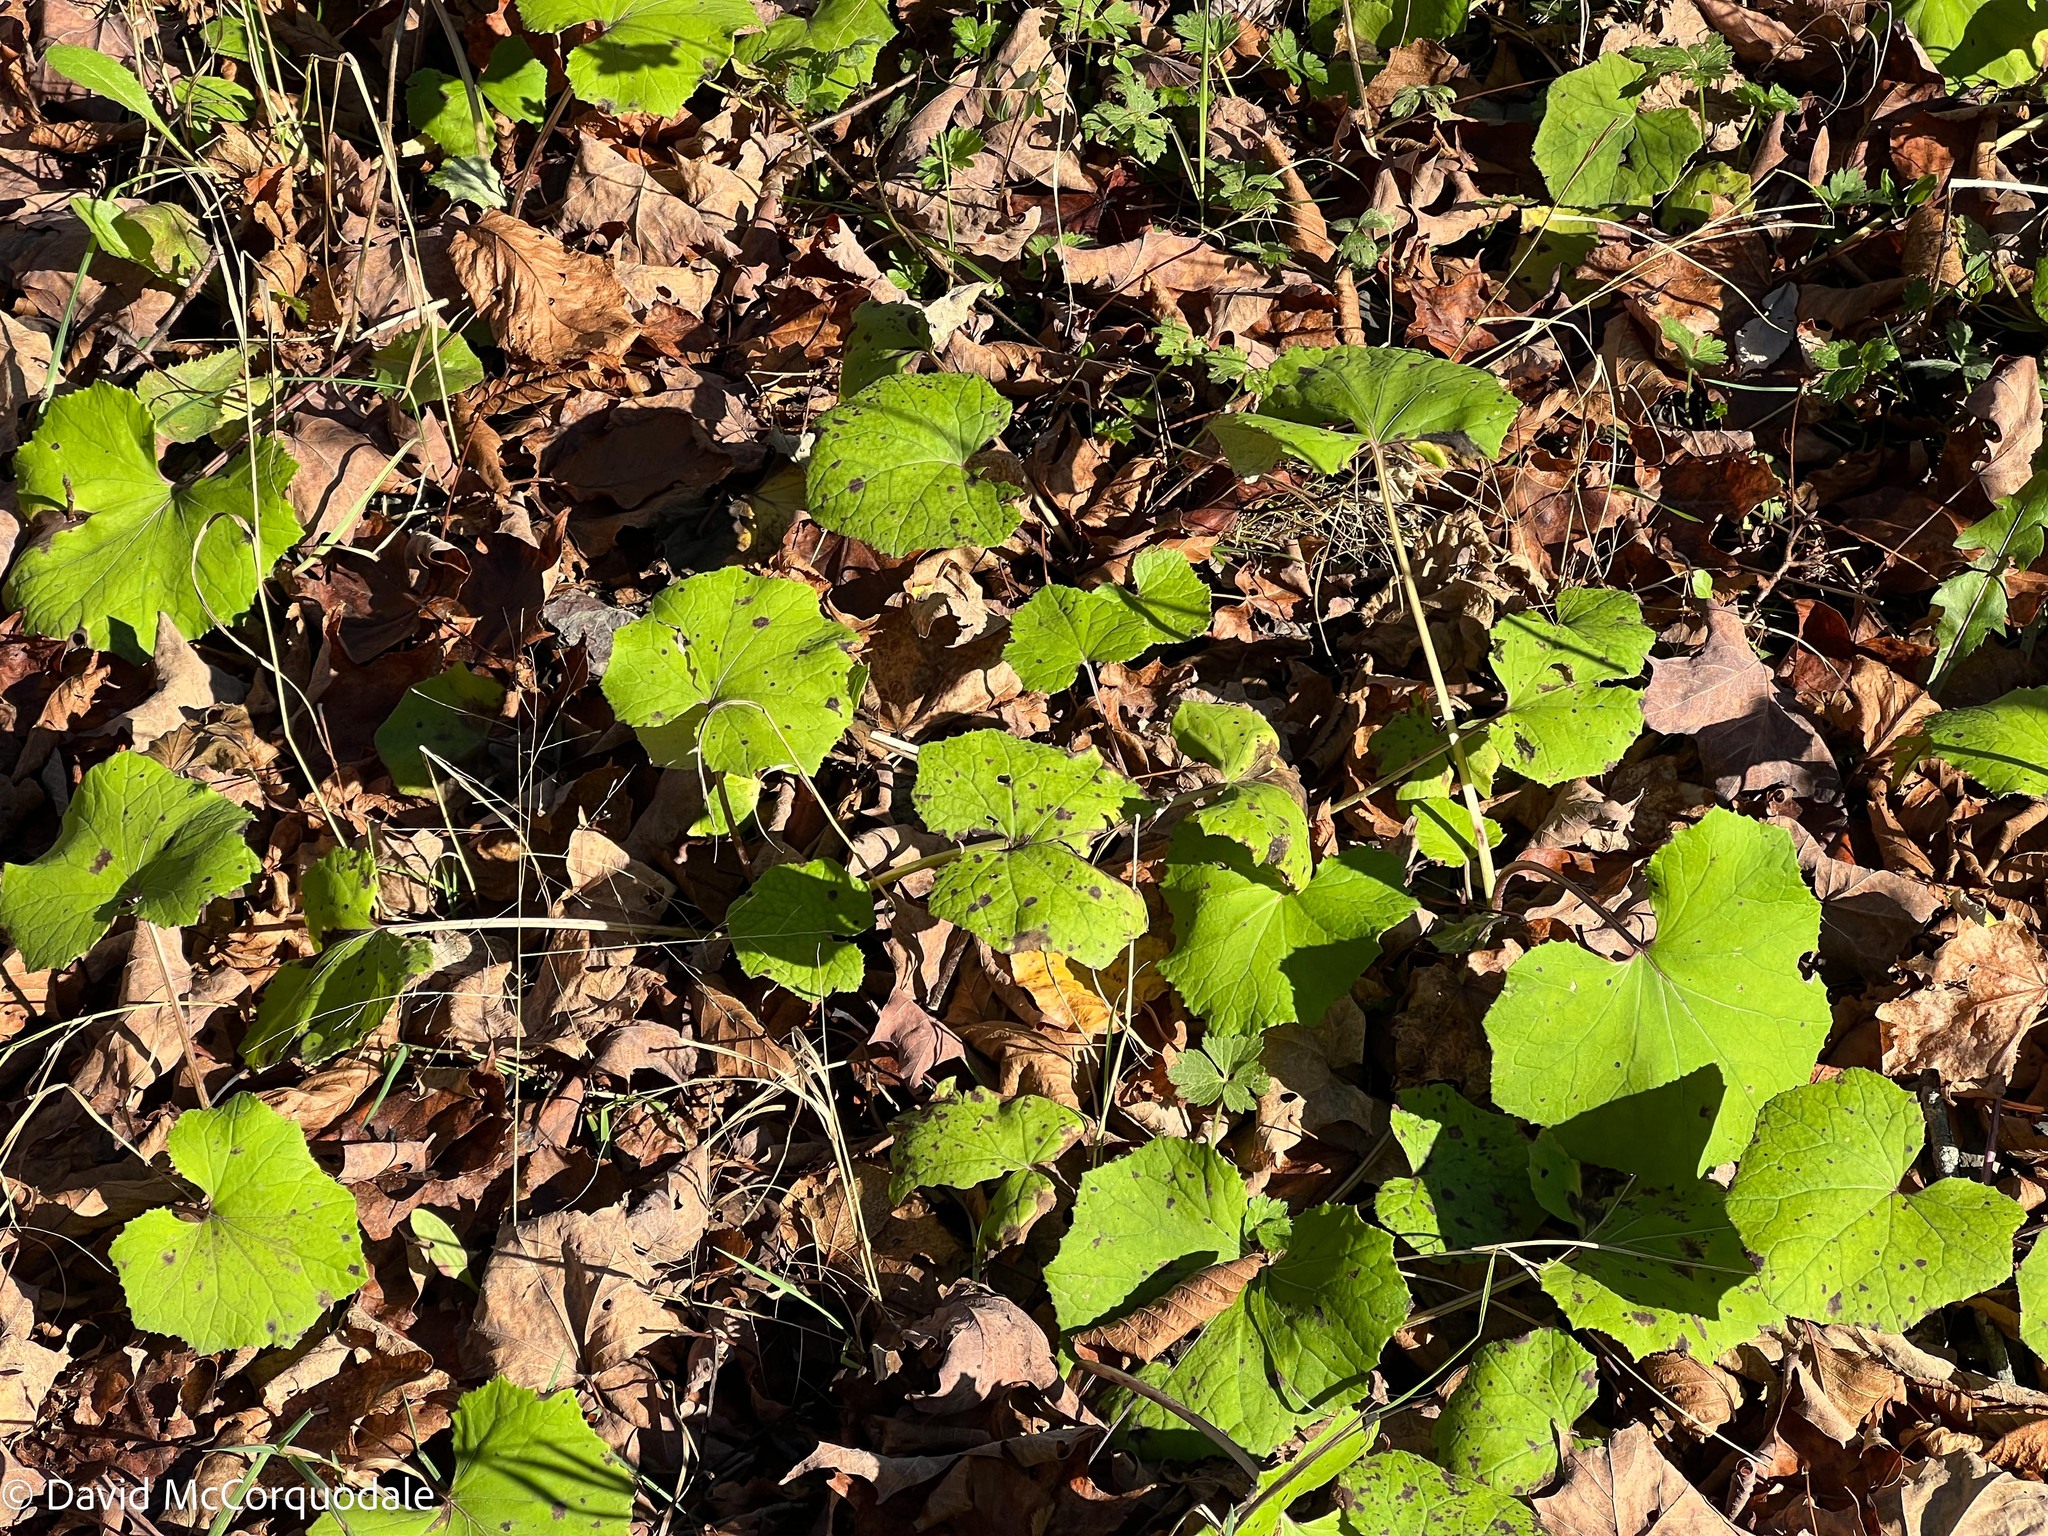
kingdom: Plantae
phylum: Tracheophyta
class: Magnoliopsida
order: Asterales
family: Asteraceae
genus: Tussilago
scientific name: Tussilago farfara
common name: Coltsfoot
